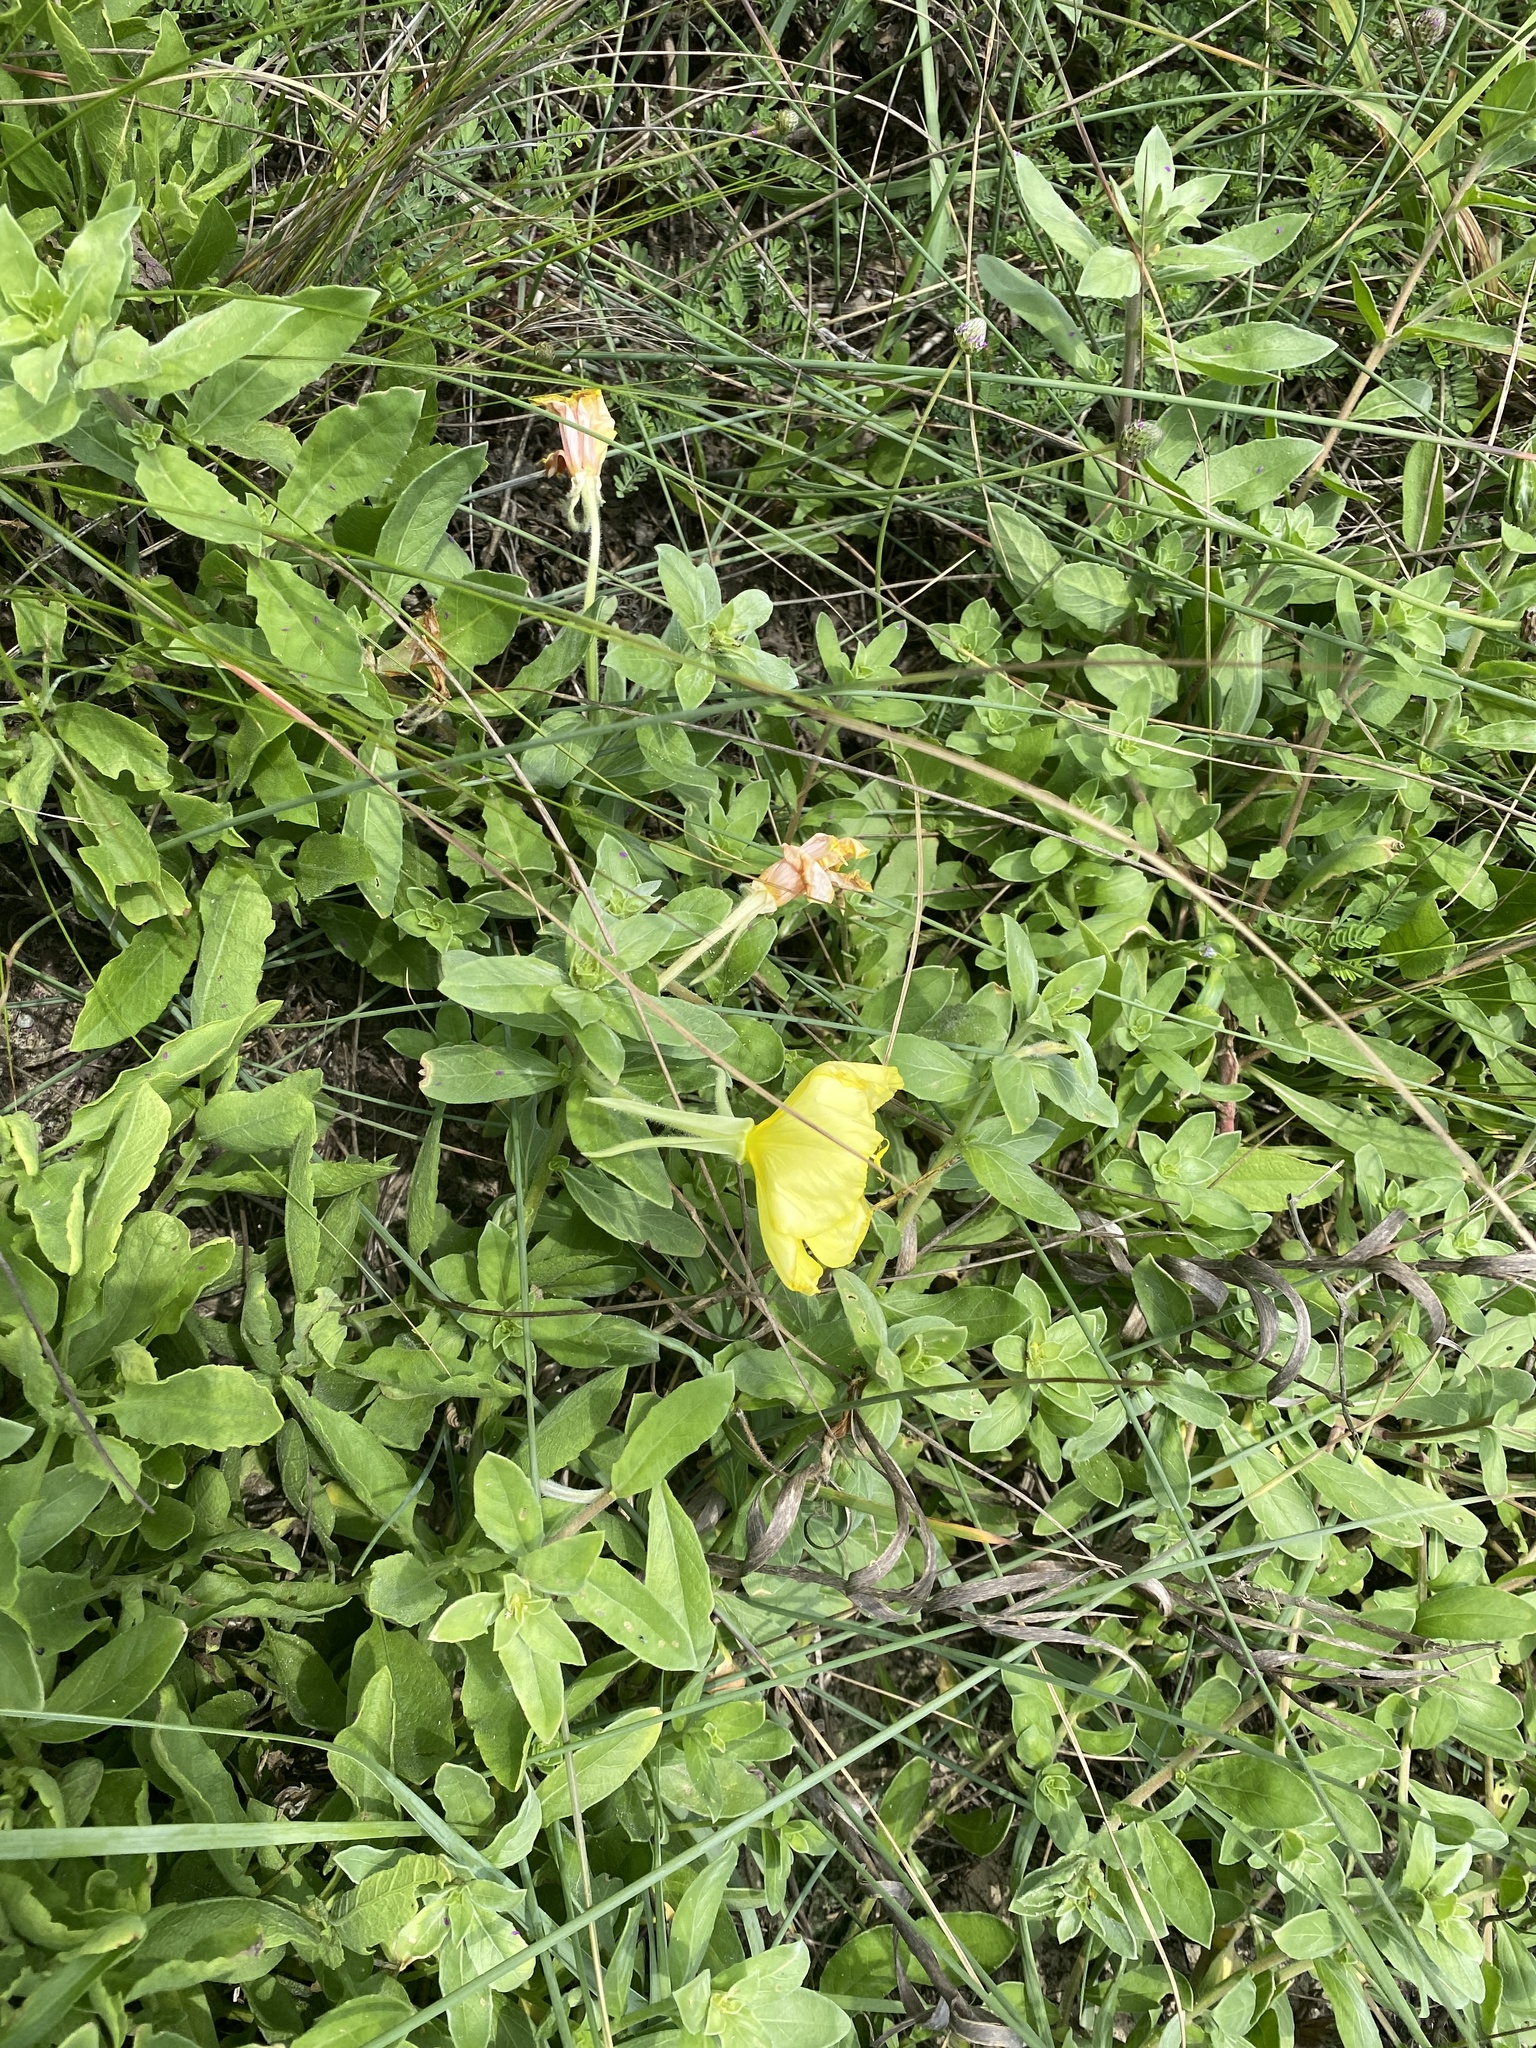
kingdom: Plantae
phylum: Tracheophyta
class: Magnoliopsida
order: Myrtales
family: Onagraceae
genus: Oenothera
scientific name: Oenothera drummondii
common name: Beach evening-primrose
